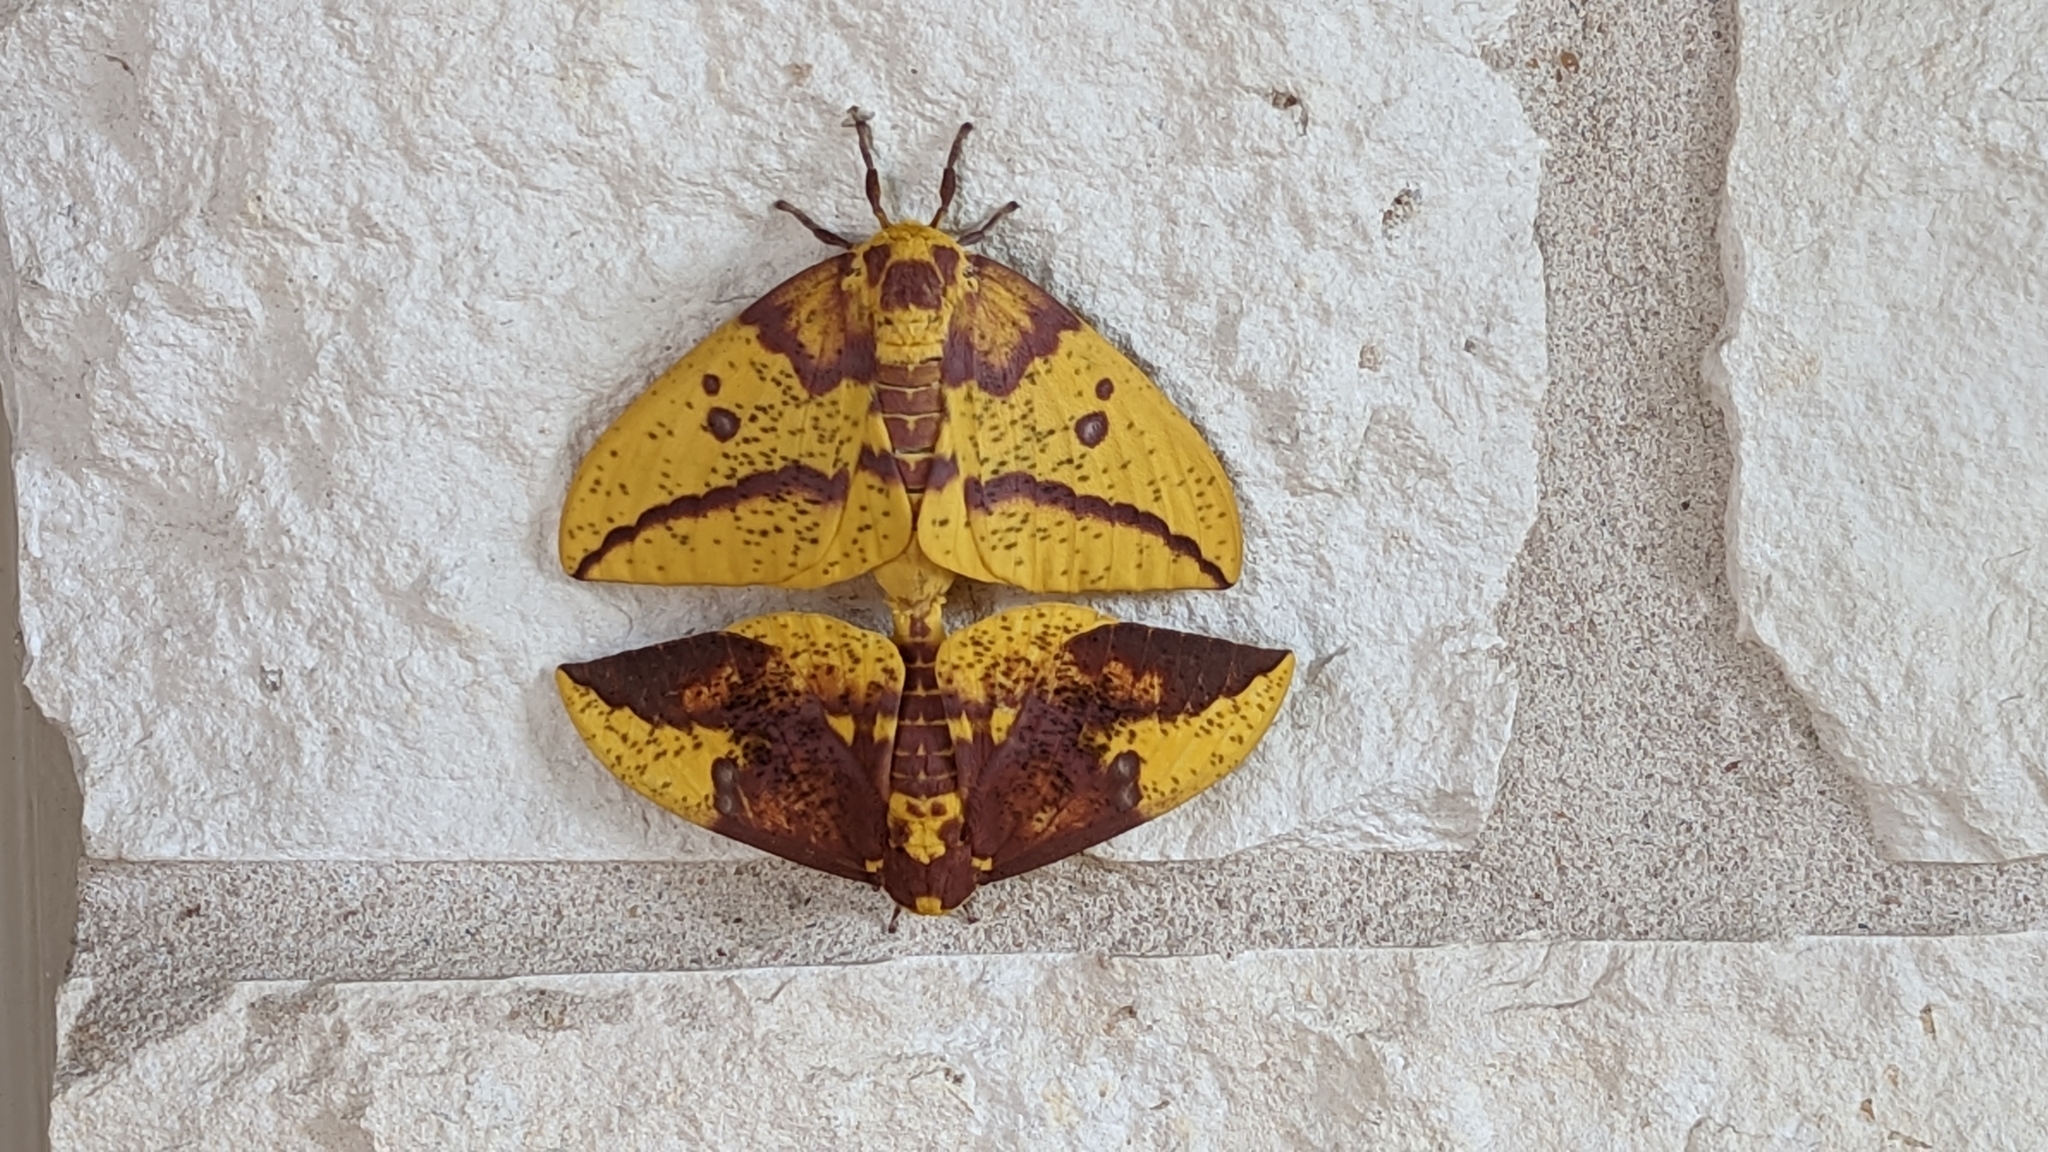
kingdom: Animalia
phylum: Arthropoda
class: Insecta
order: Lepidoptera
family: Saturniidae
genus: Eacles
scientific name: Eacles imperialis
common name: Imperial moth
